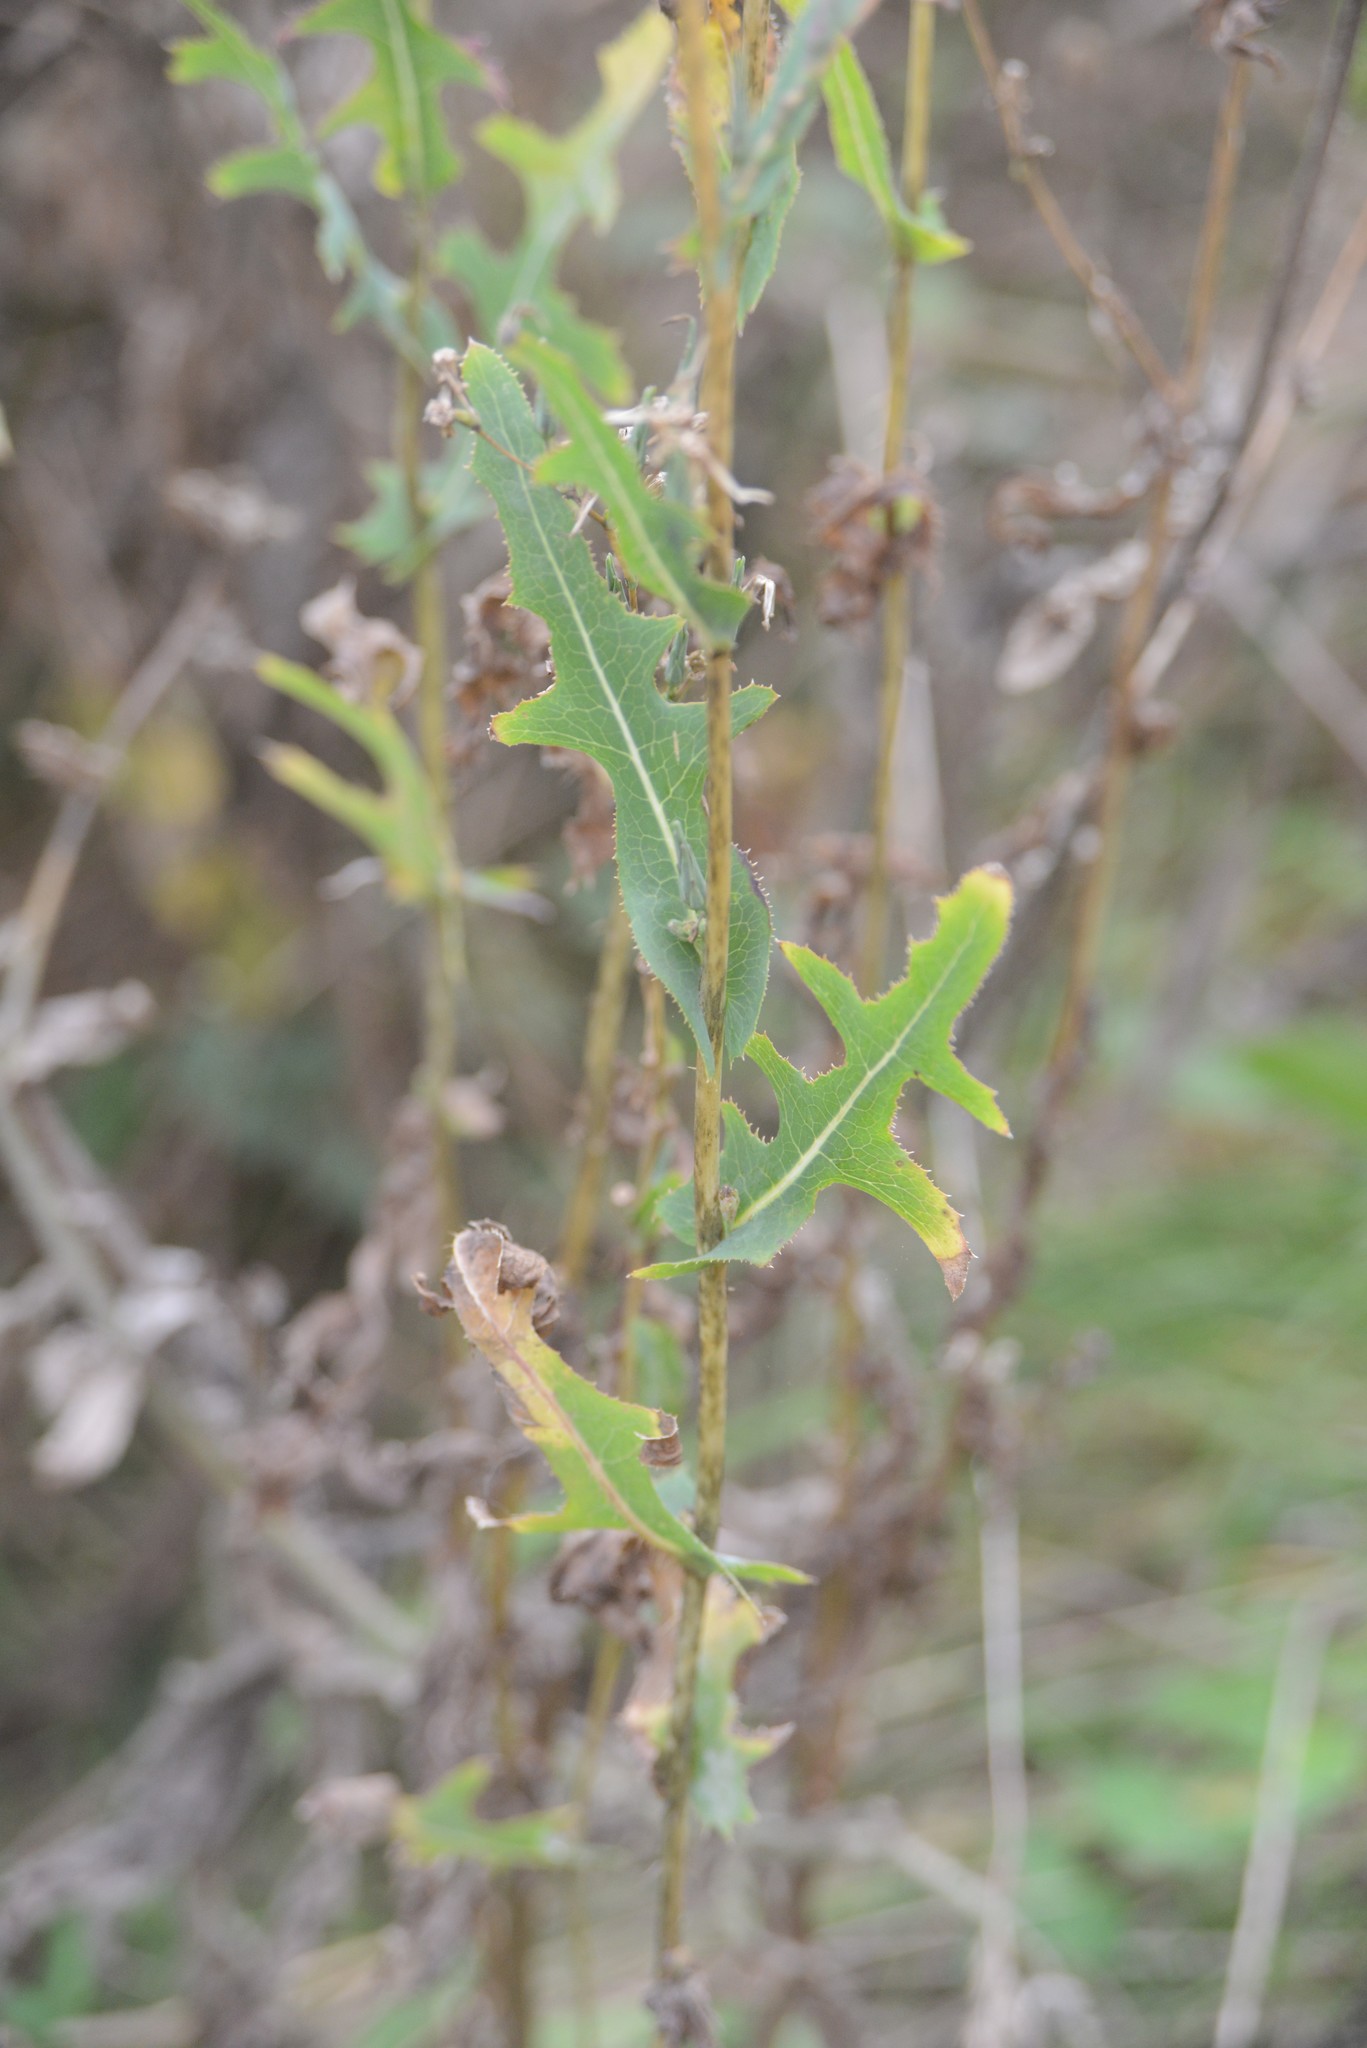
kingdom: Plantae
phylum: Tracheophyta
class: Magnoliopsida
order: Asterales
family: Asteraceae
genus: Lactuca
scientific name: Lactuca serriola
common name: Prickly lettuce
